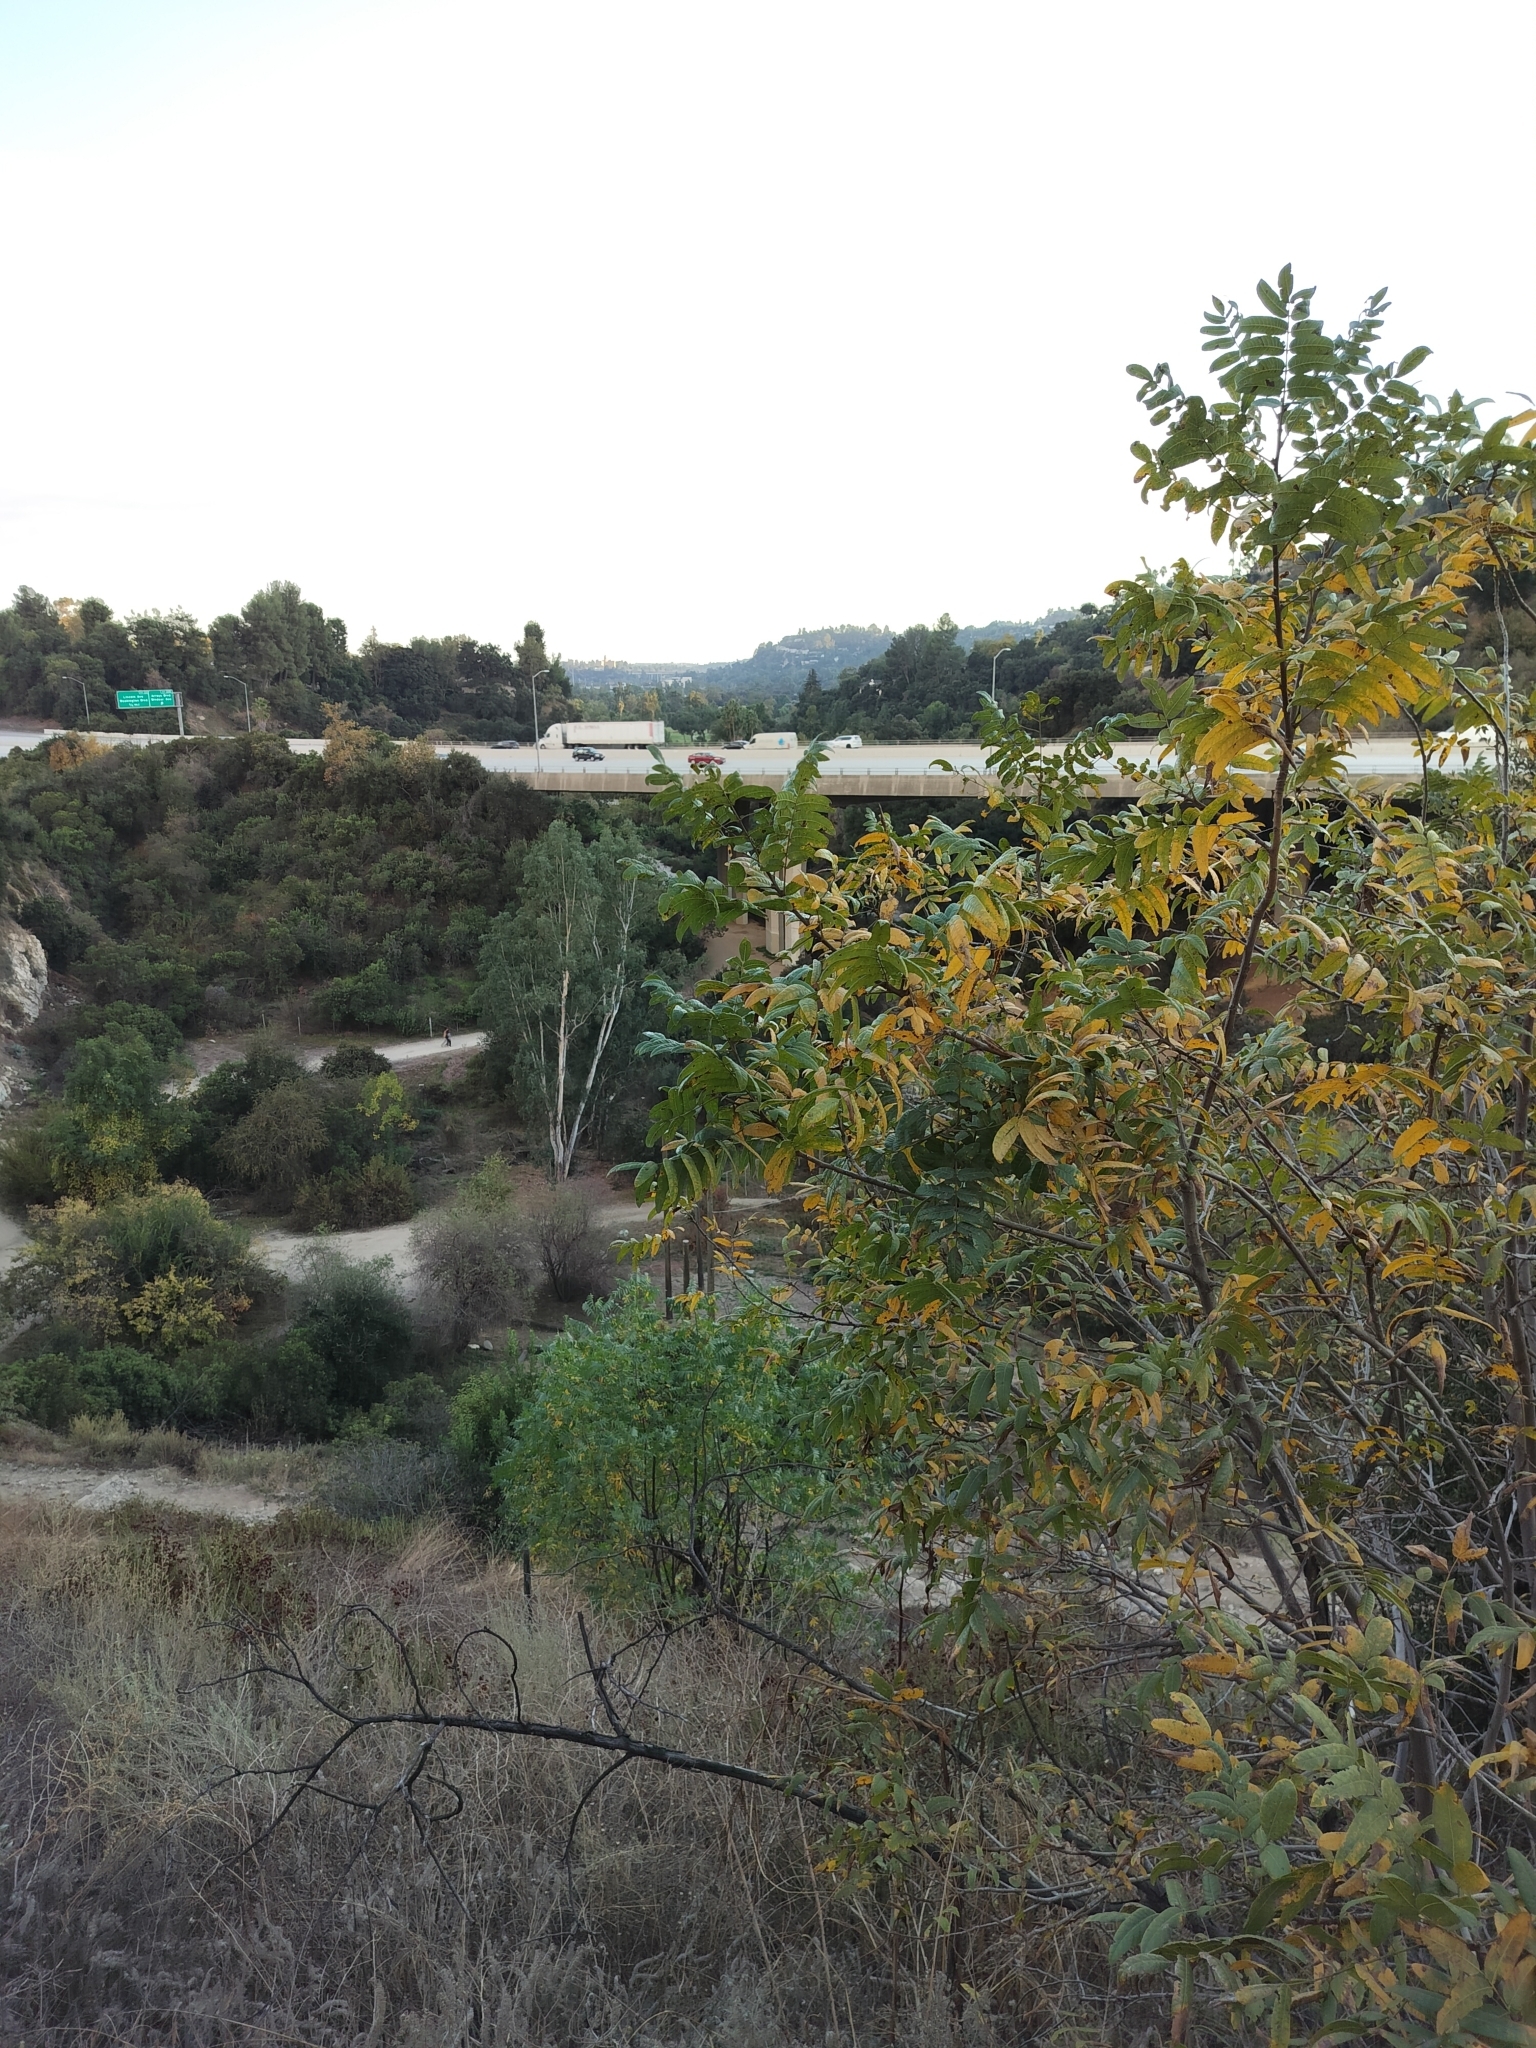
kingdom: Plantae
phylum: Tracheophyta
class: Magnoliopsida
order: Fagales
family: Juglandaceae
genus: Juglans
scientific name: Juglans californica
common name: Southern california black walnut
